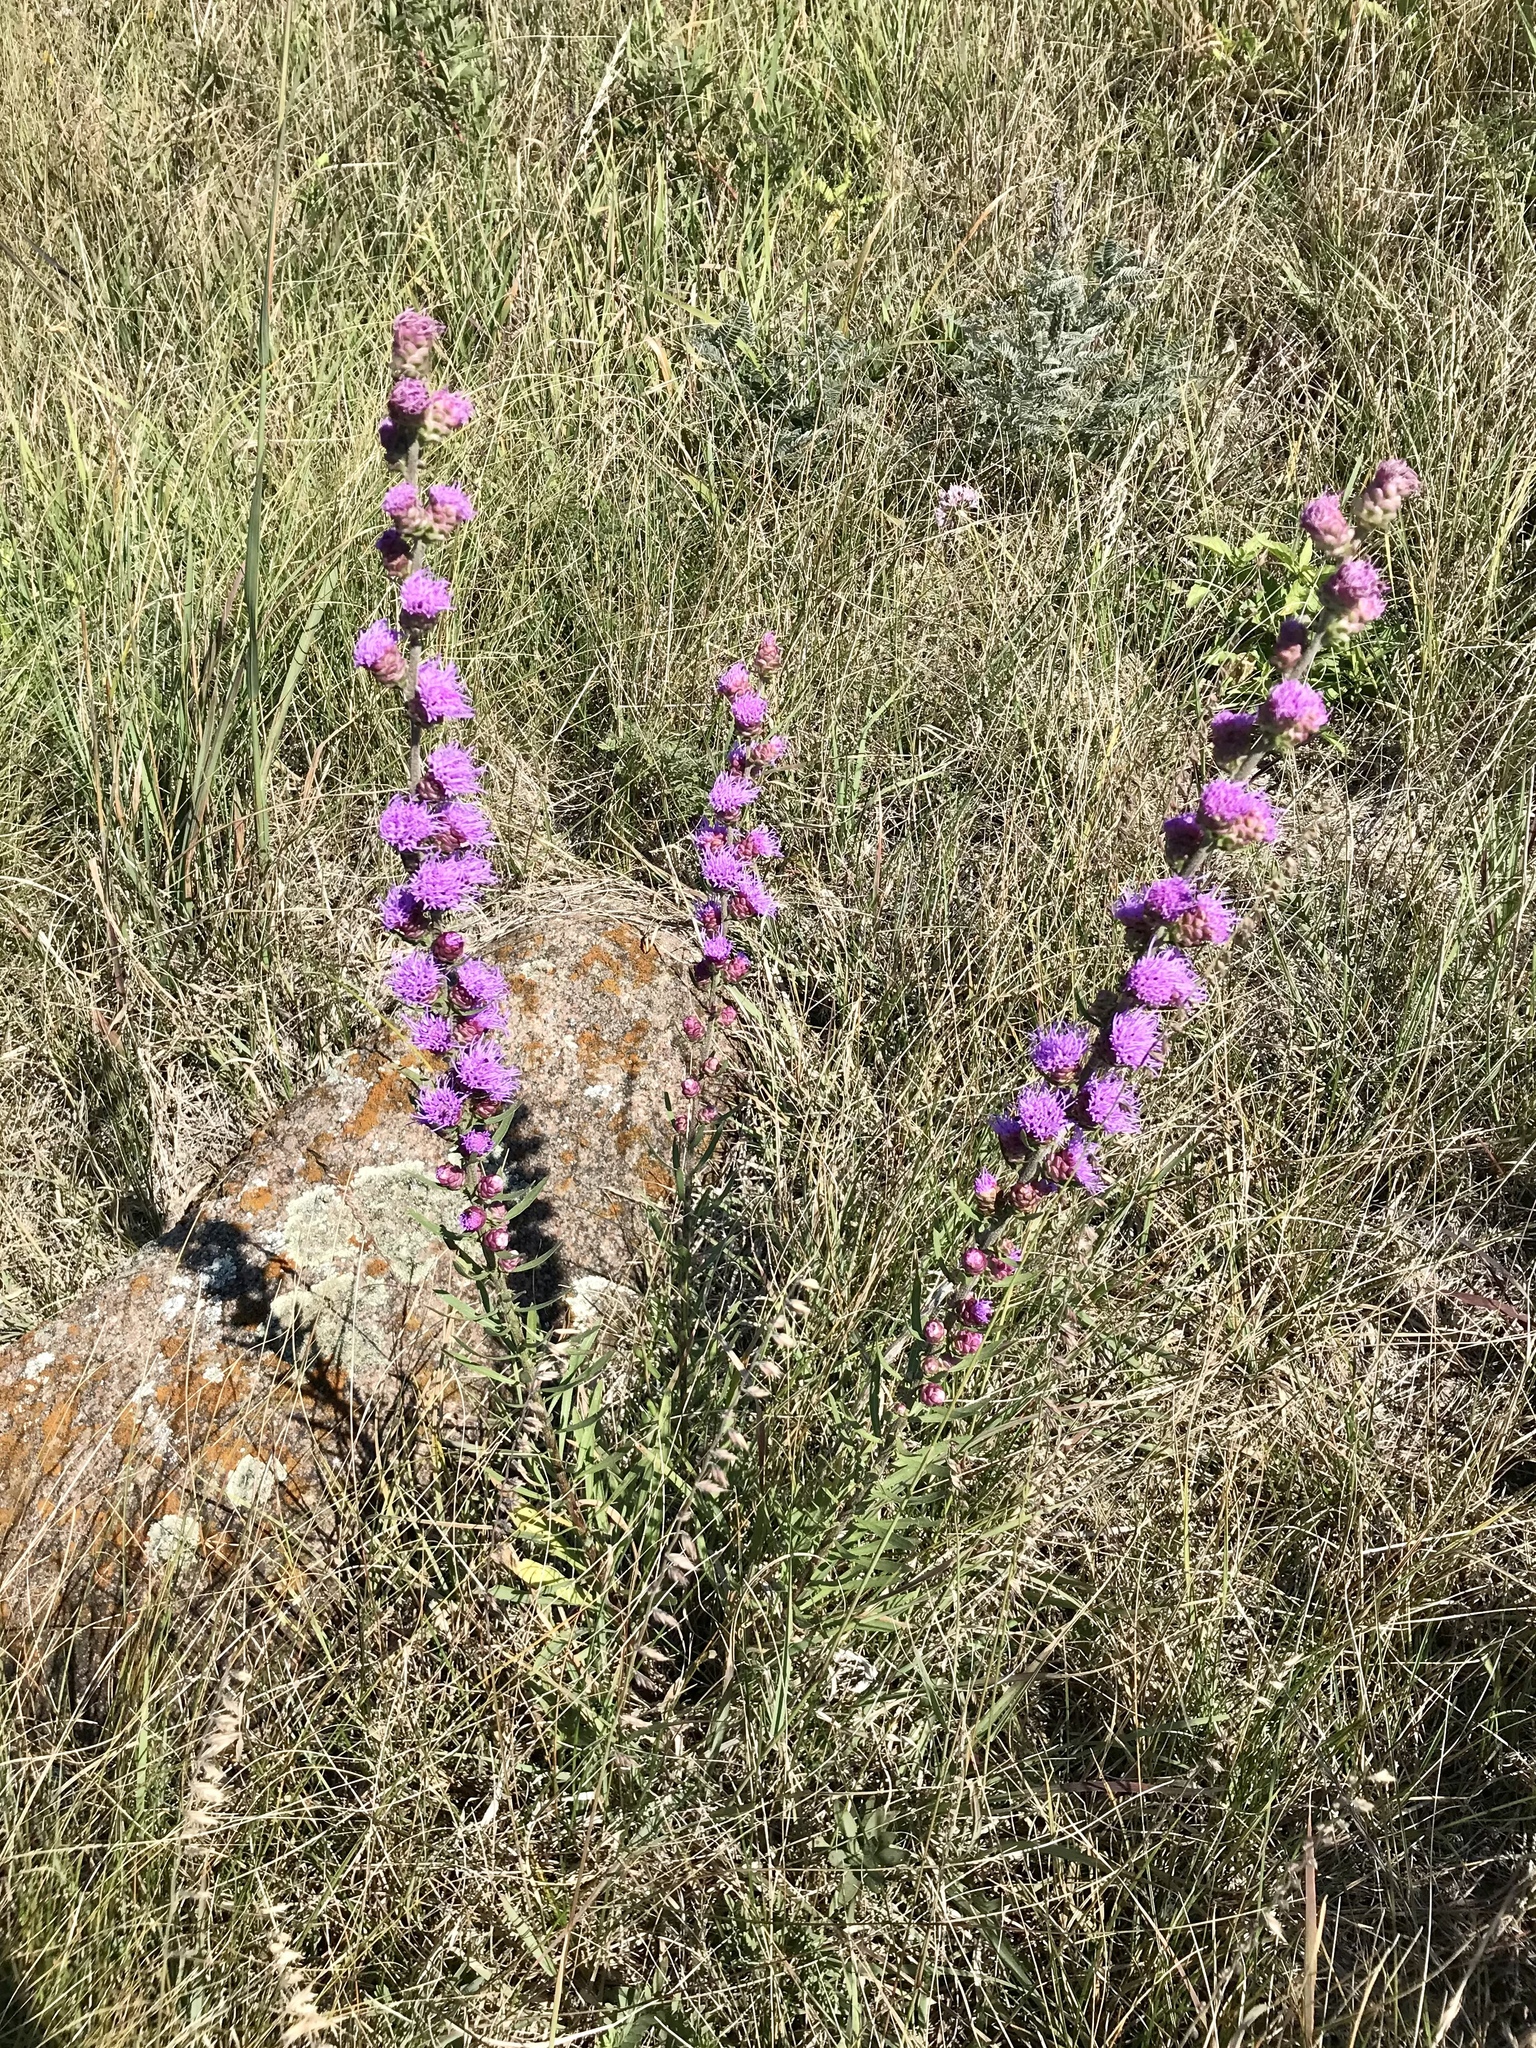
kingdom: Plantae
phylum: Tracheophyta
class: Magnoliopsida
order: Asterales
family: Asteraceae
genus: Liatris
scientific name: Liatris aspera
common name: Lacerate blazing-star
